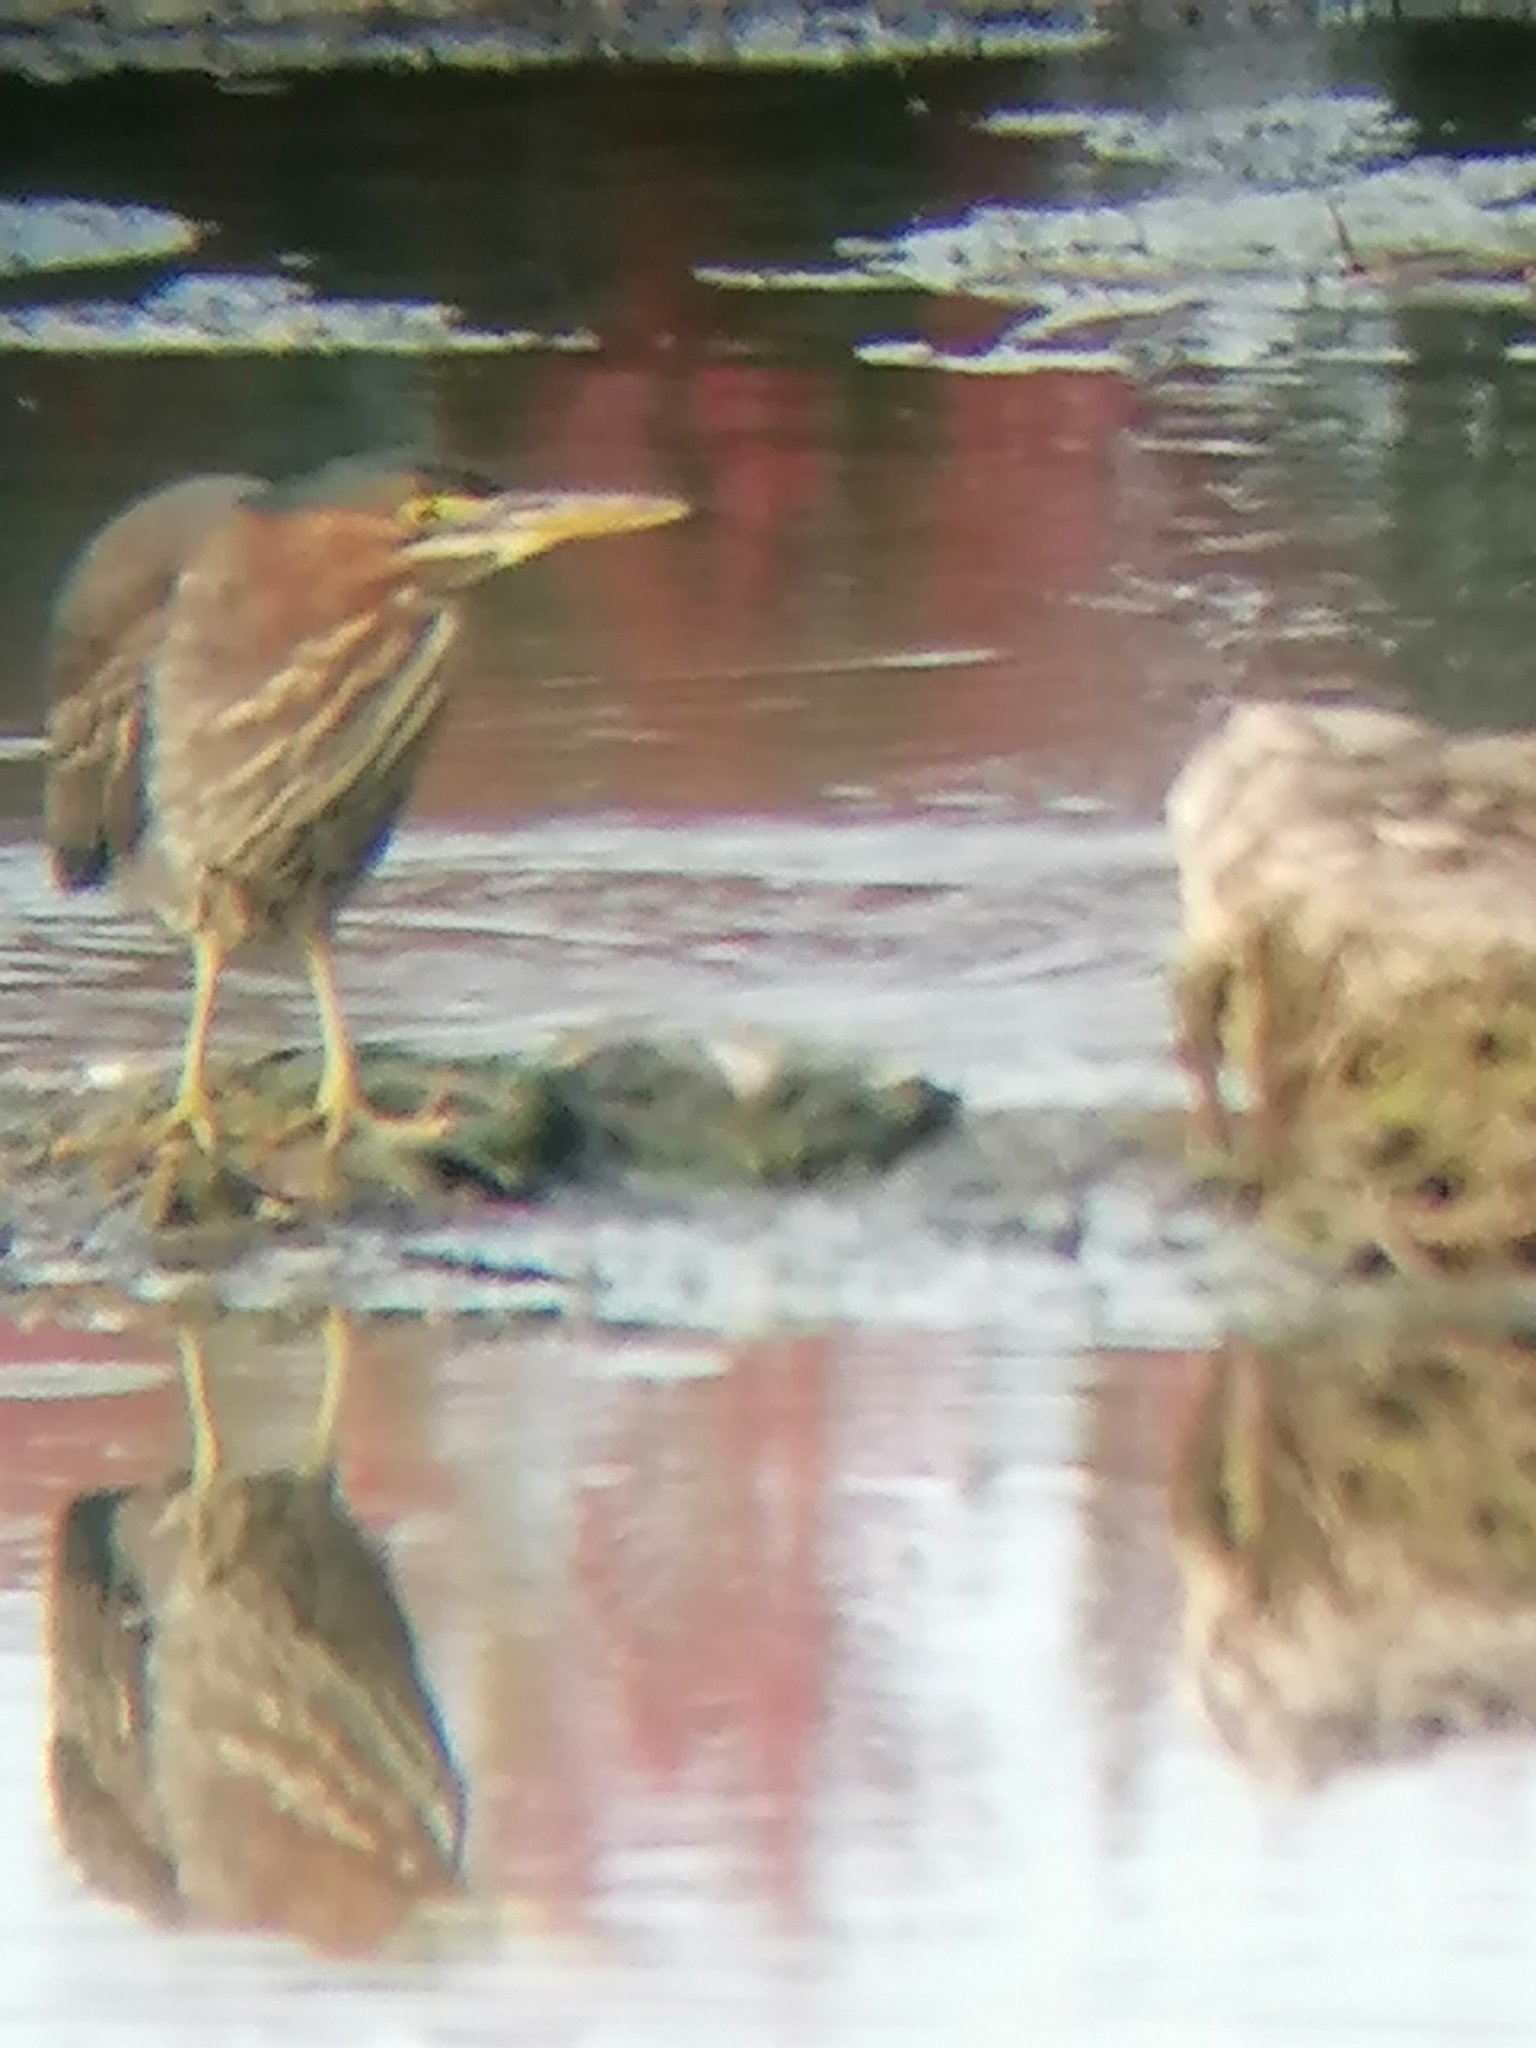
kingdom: Animalia
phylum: Chordata
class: Aves
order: Pelecaniformes
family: Ardeidae
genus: Butorides
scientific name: Butorides virescens
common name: Green heron
